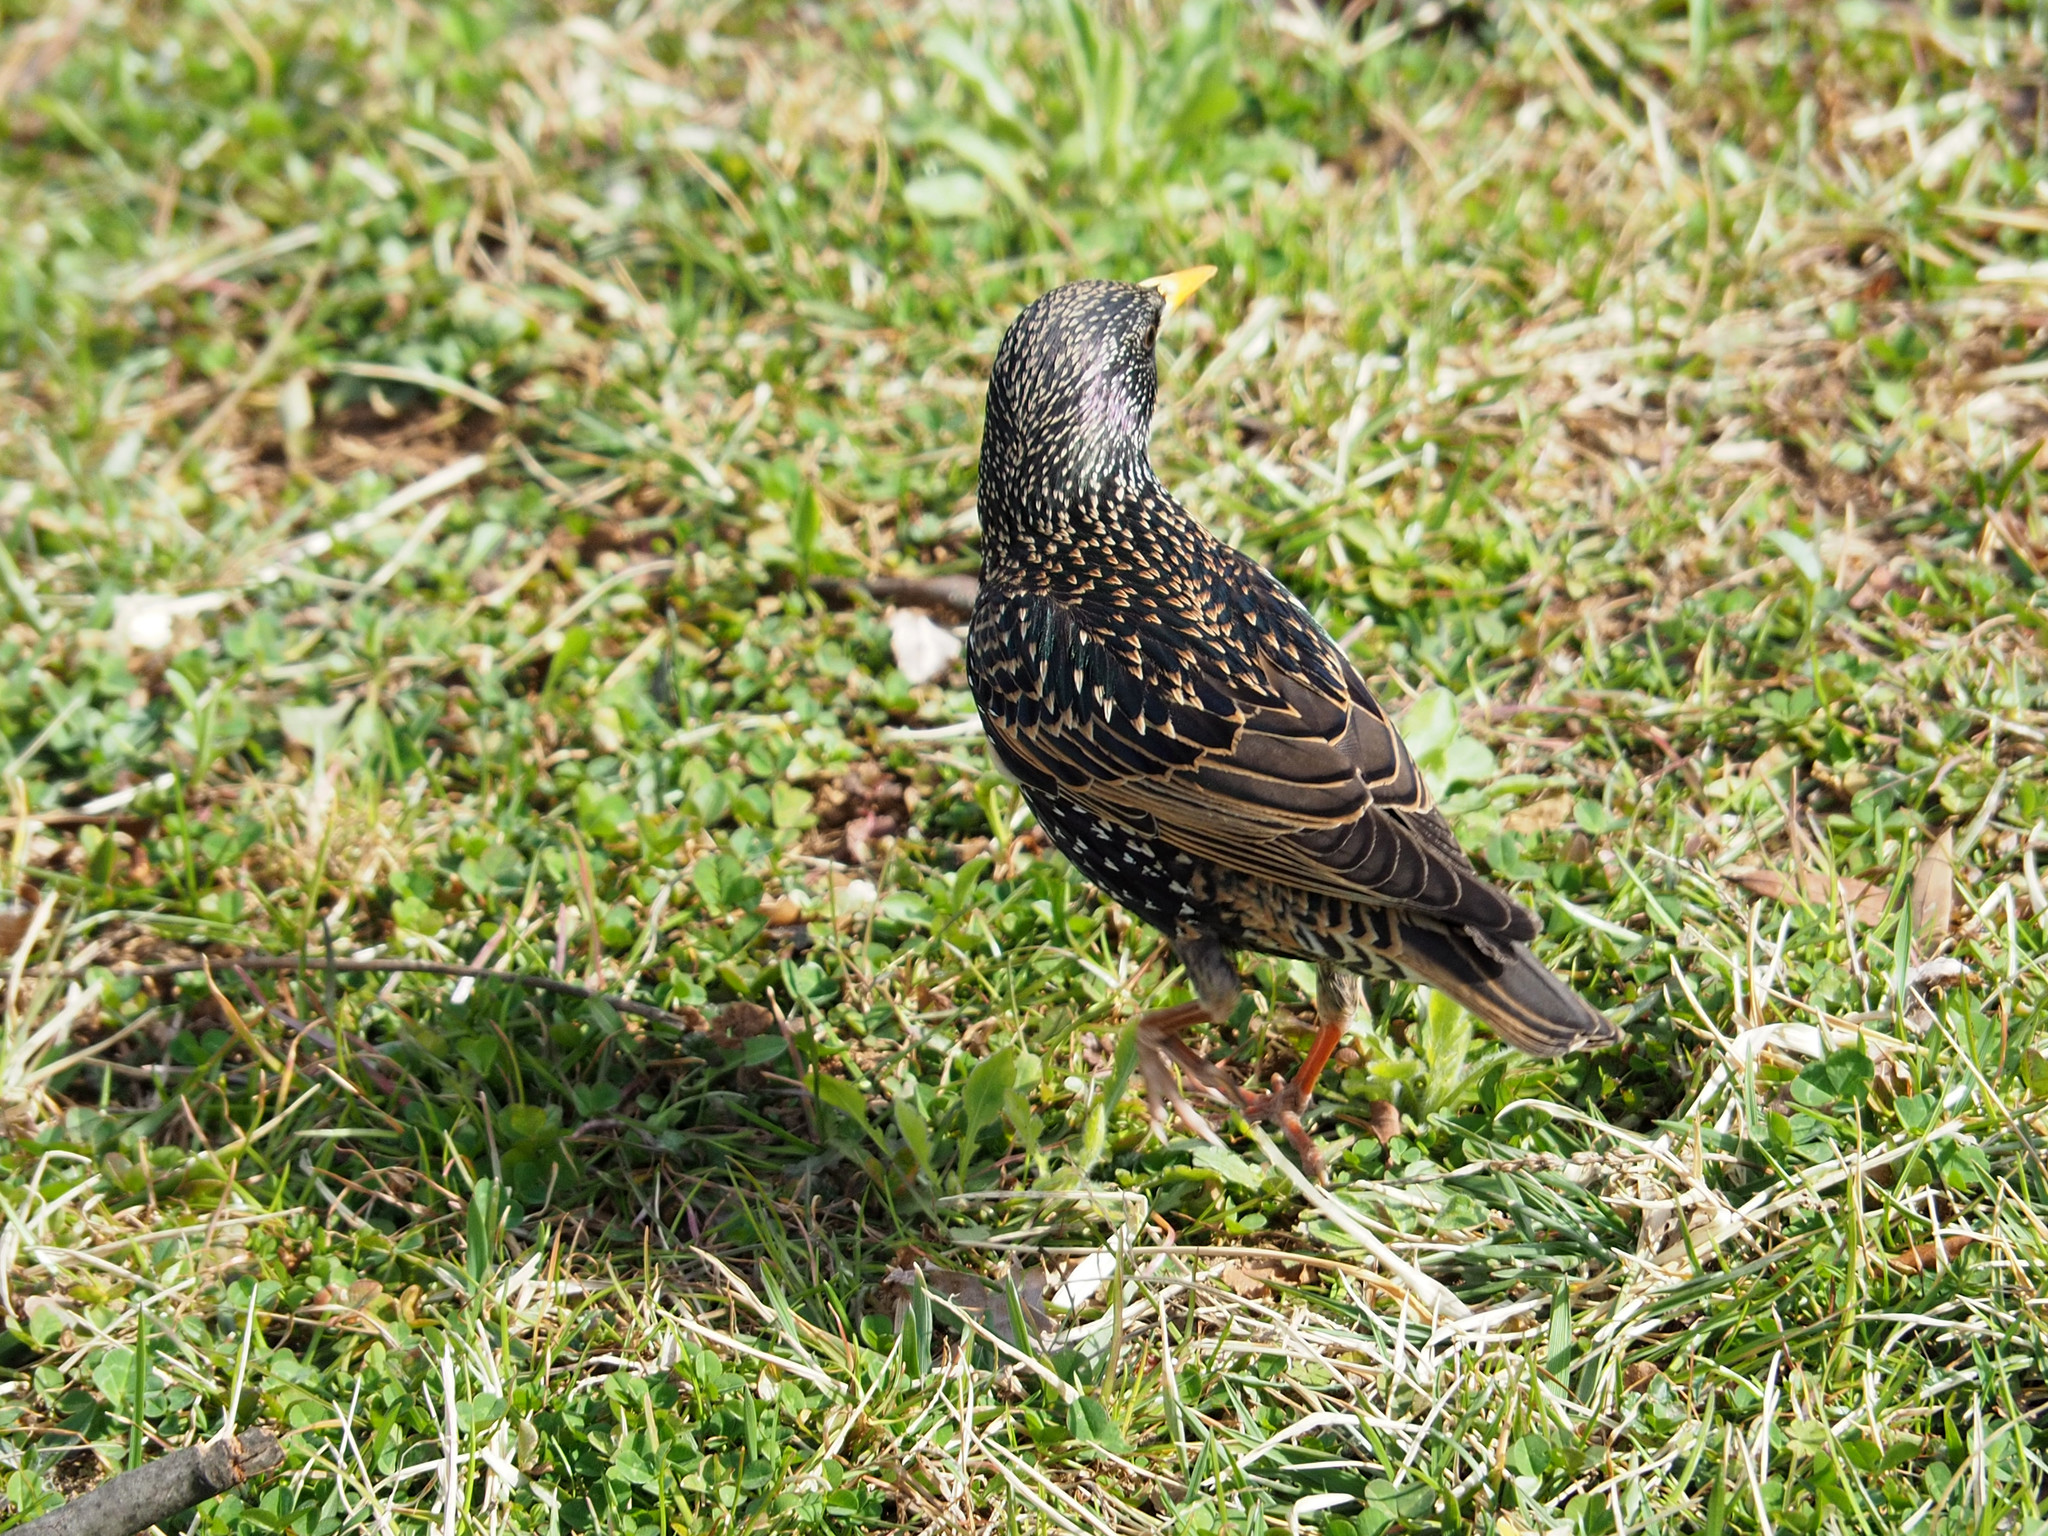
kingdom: Animalia
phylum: Chordata
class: Aves
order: Passeriformes
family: Sturnidae
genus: Sturnus
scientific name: Sturnus vulgaris
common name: Common starling
